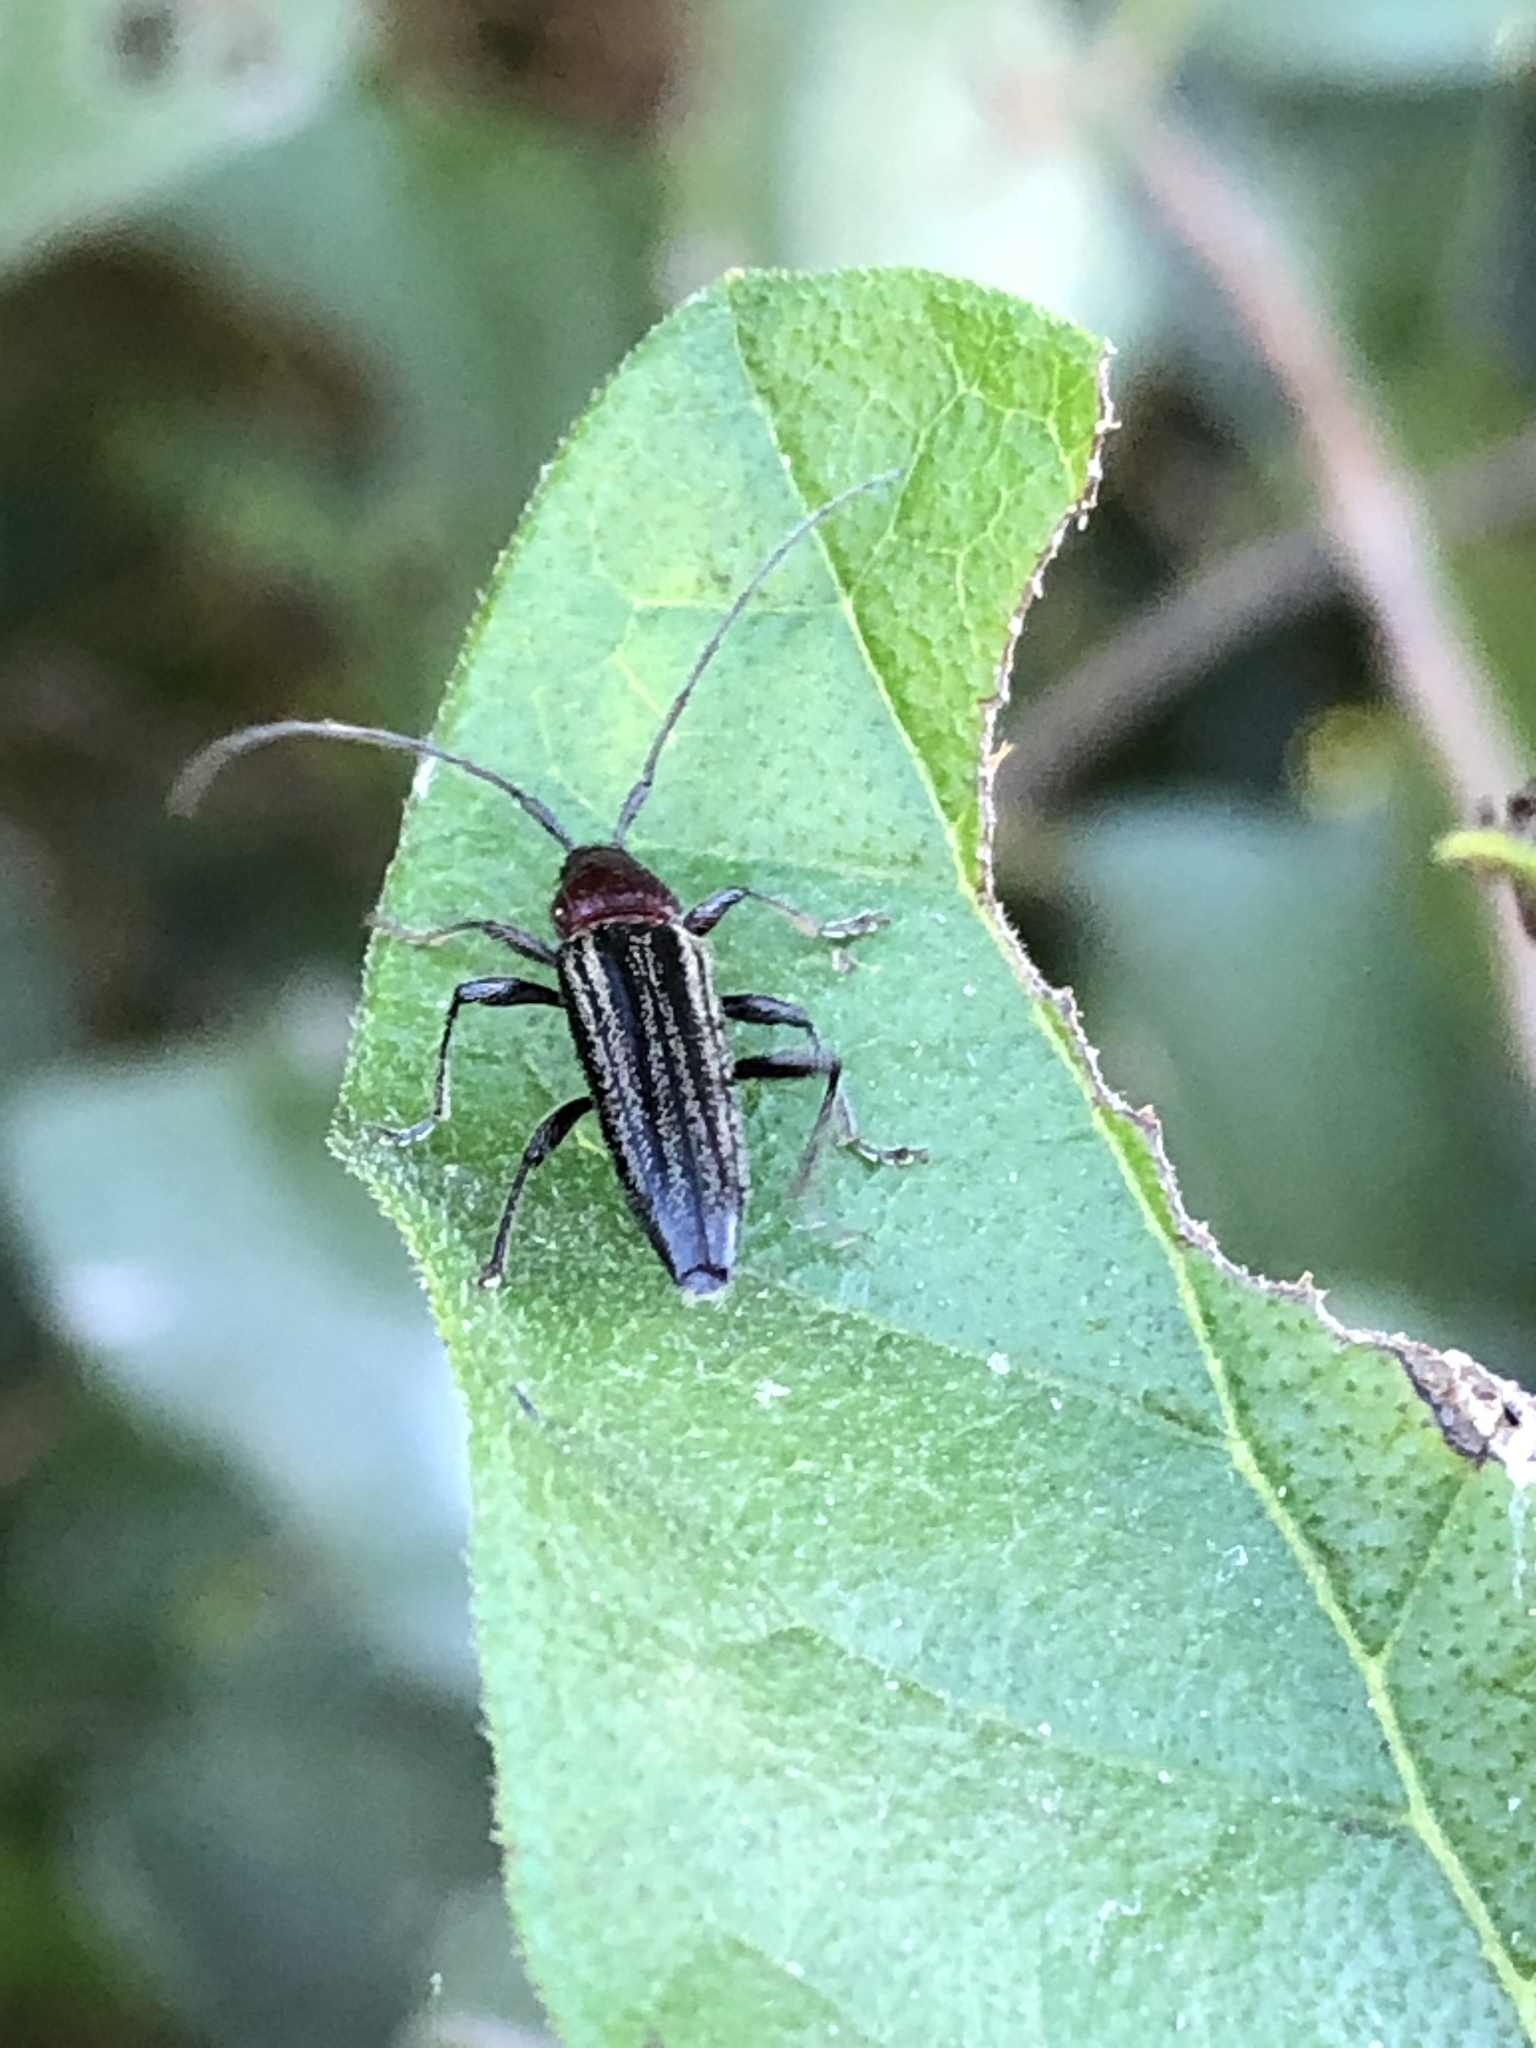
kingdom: Animalia
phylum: Arthropoda
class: Insecta
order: Coleoptera
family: Cerambycidae
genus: Stenosphenus
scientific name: Stenosphenus lugens
